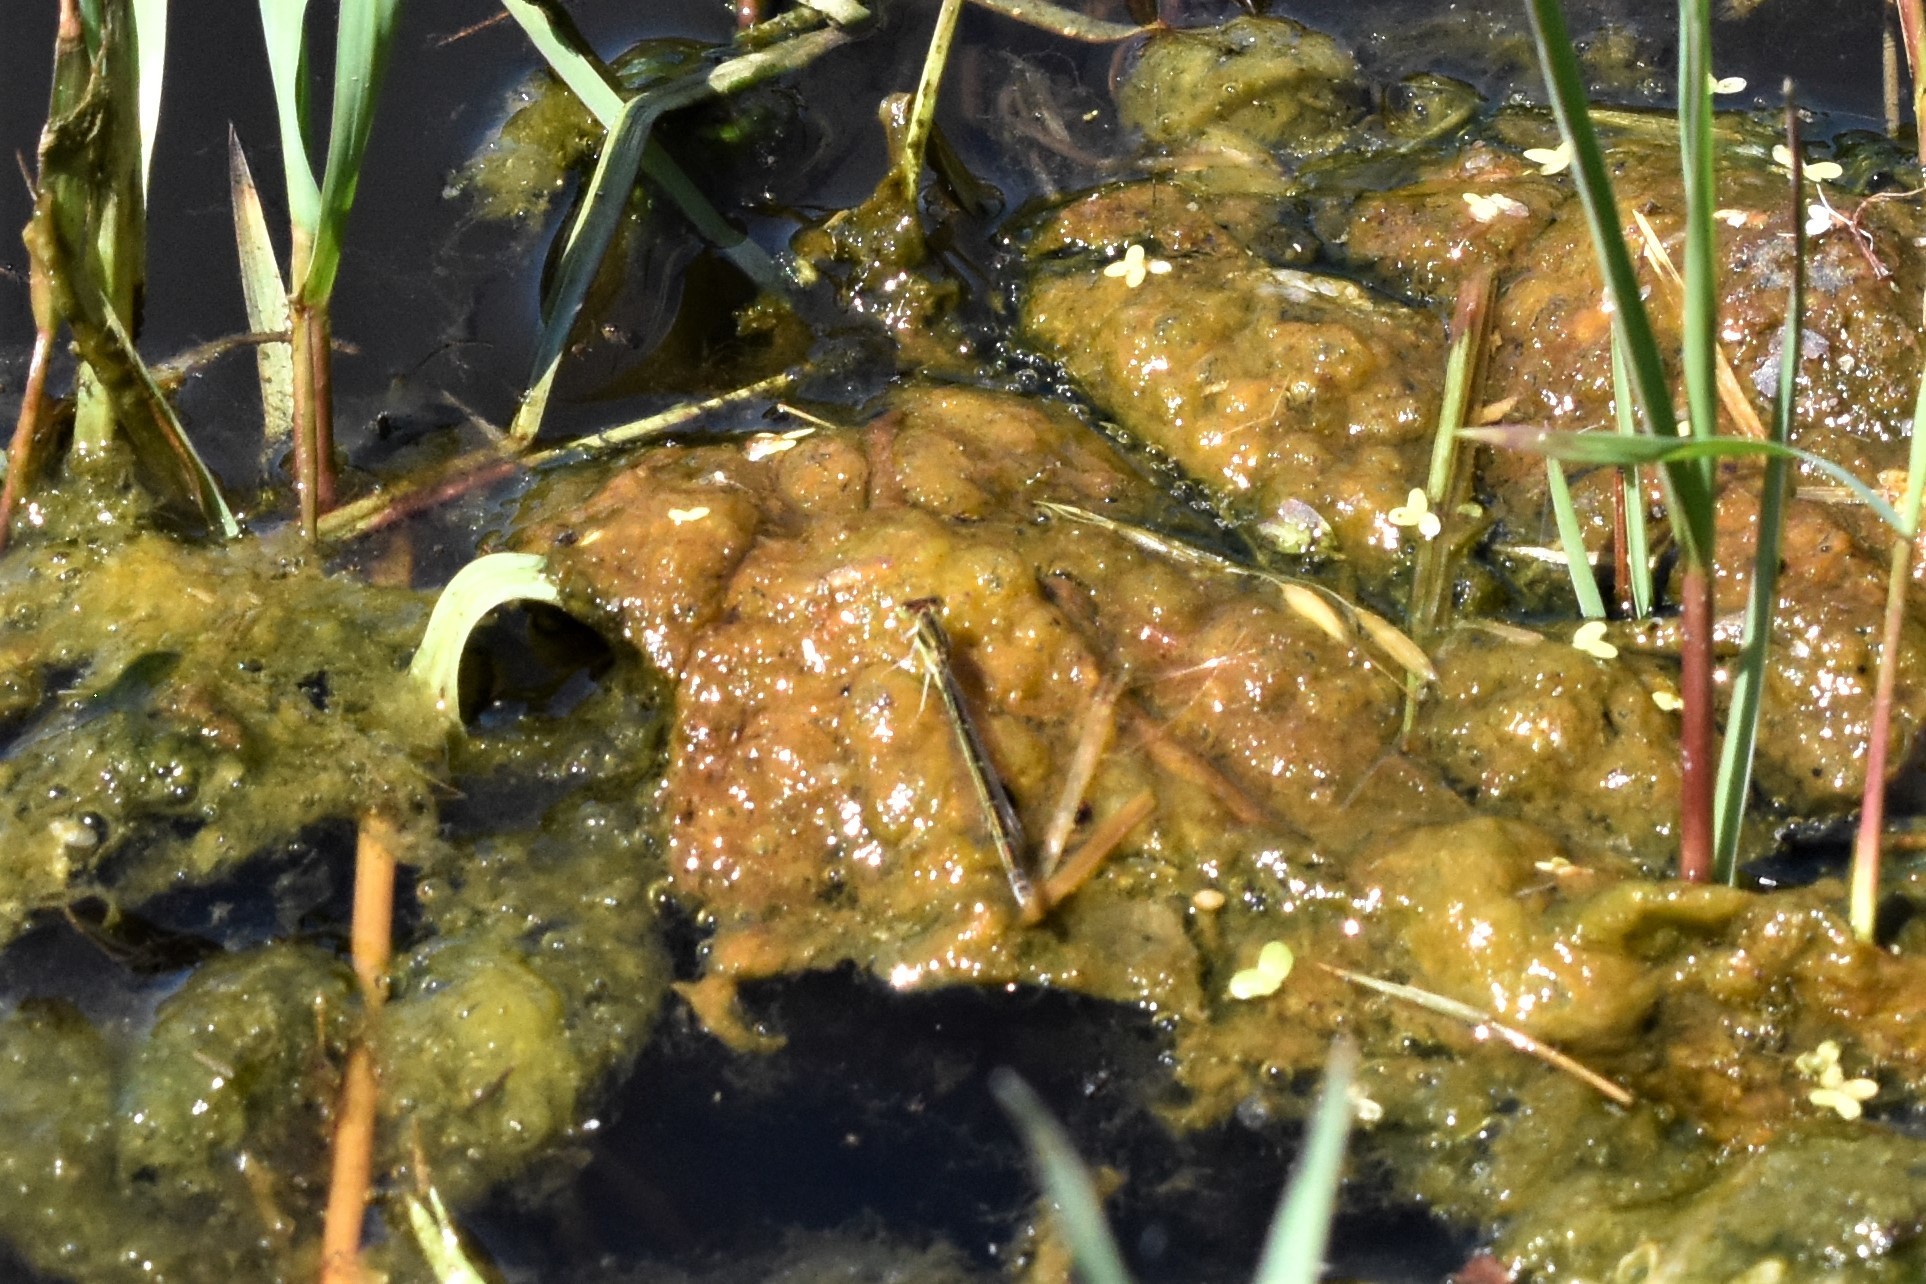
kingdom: Animalia
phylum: Arthropoda
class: Insecta
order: Odonata
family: Coenagrionidae
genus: Ischnura
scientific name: Ischnura aurora
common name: Gossamer damselfly
